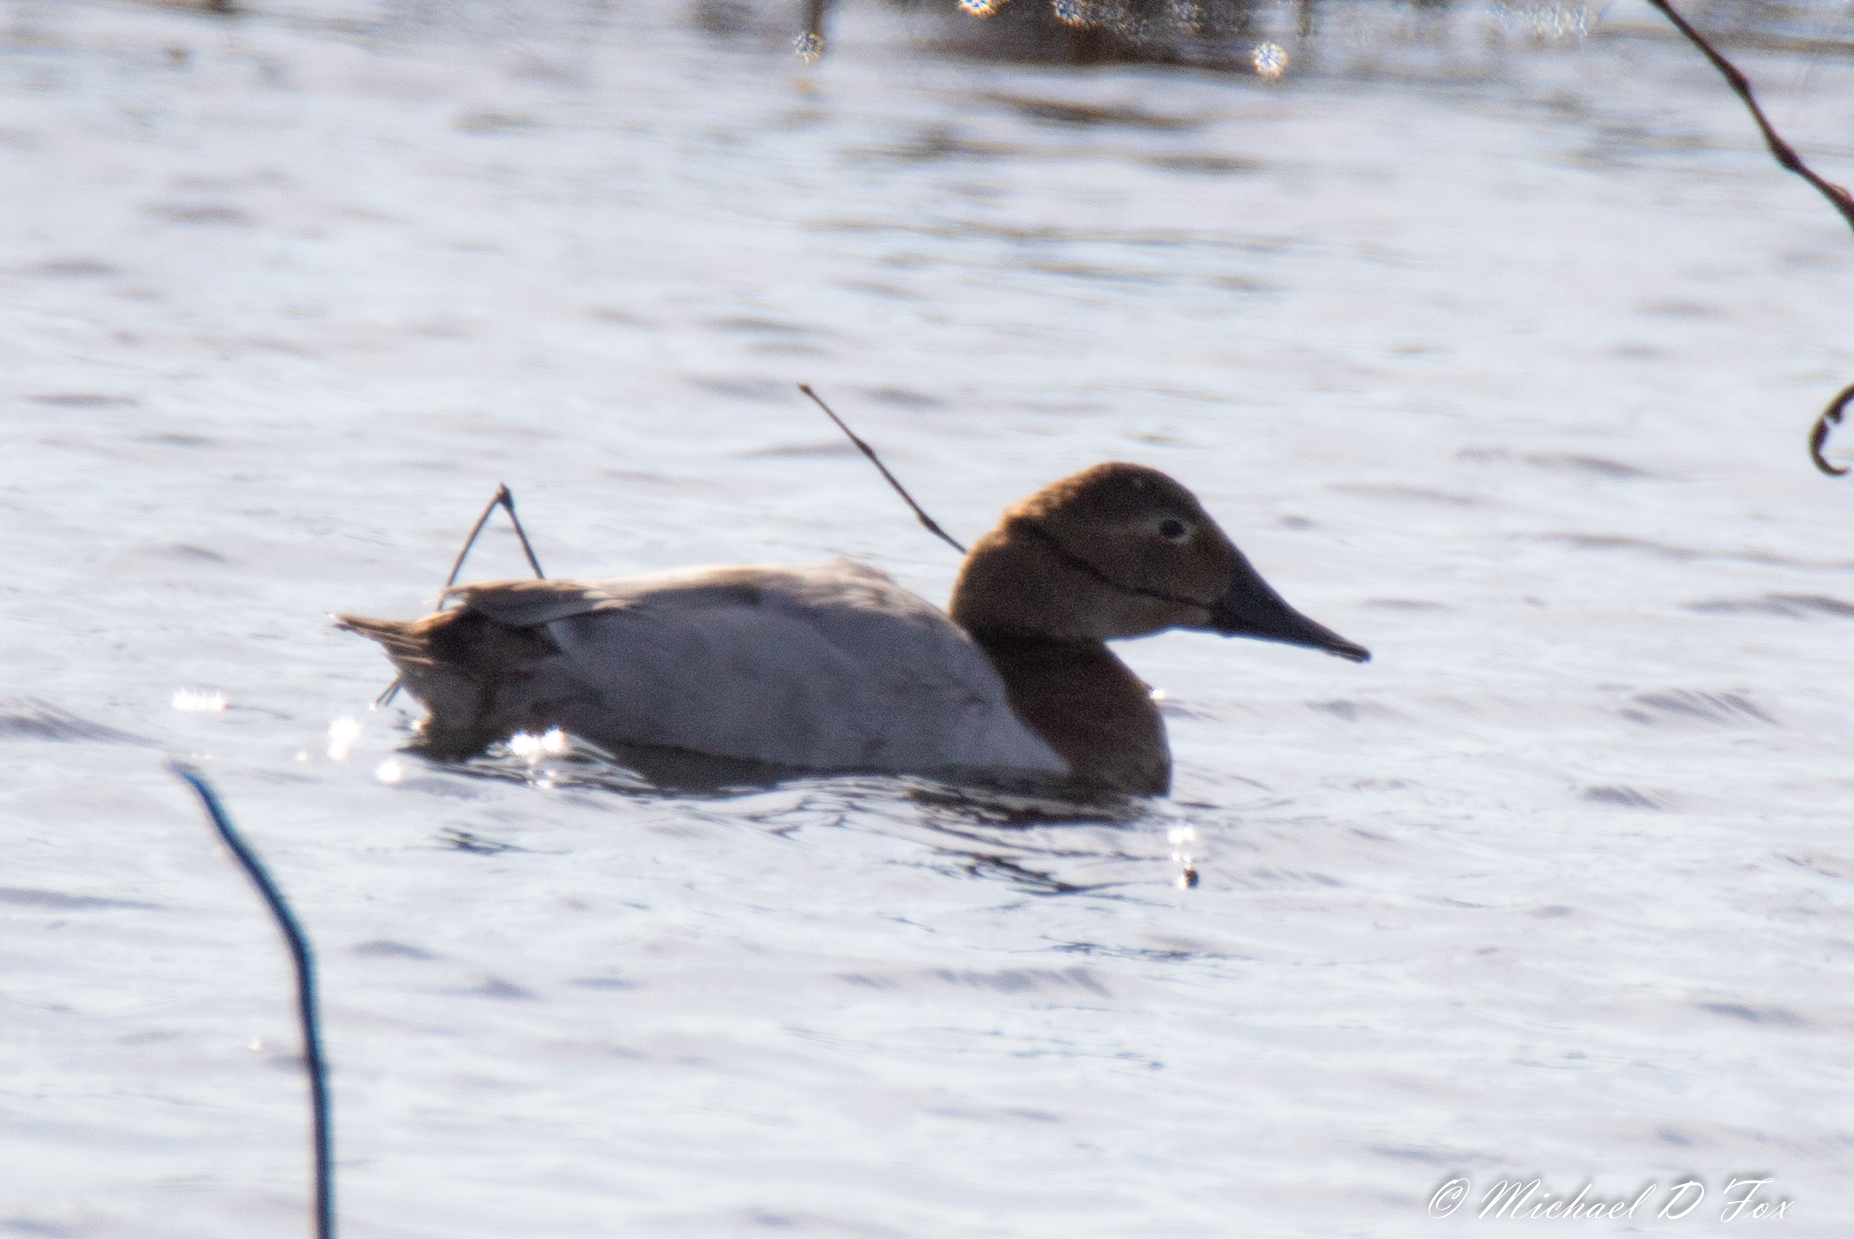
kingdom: Animalia
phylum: Chordata
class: Aves
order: Anseriformes
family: Anatidae
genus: Aythya
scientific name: Aythya valisineria
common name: Canvasback
